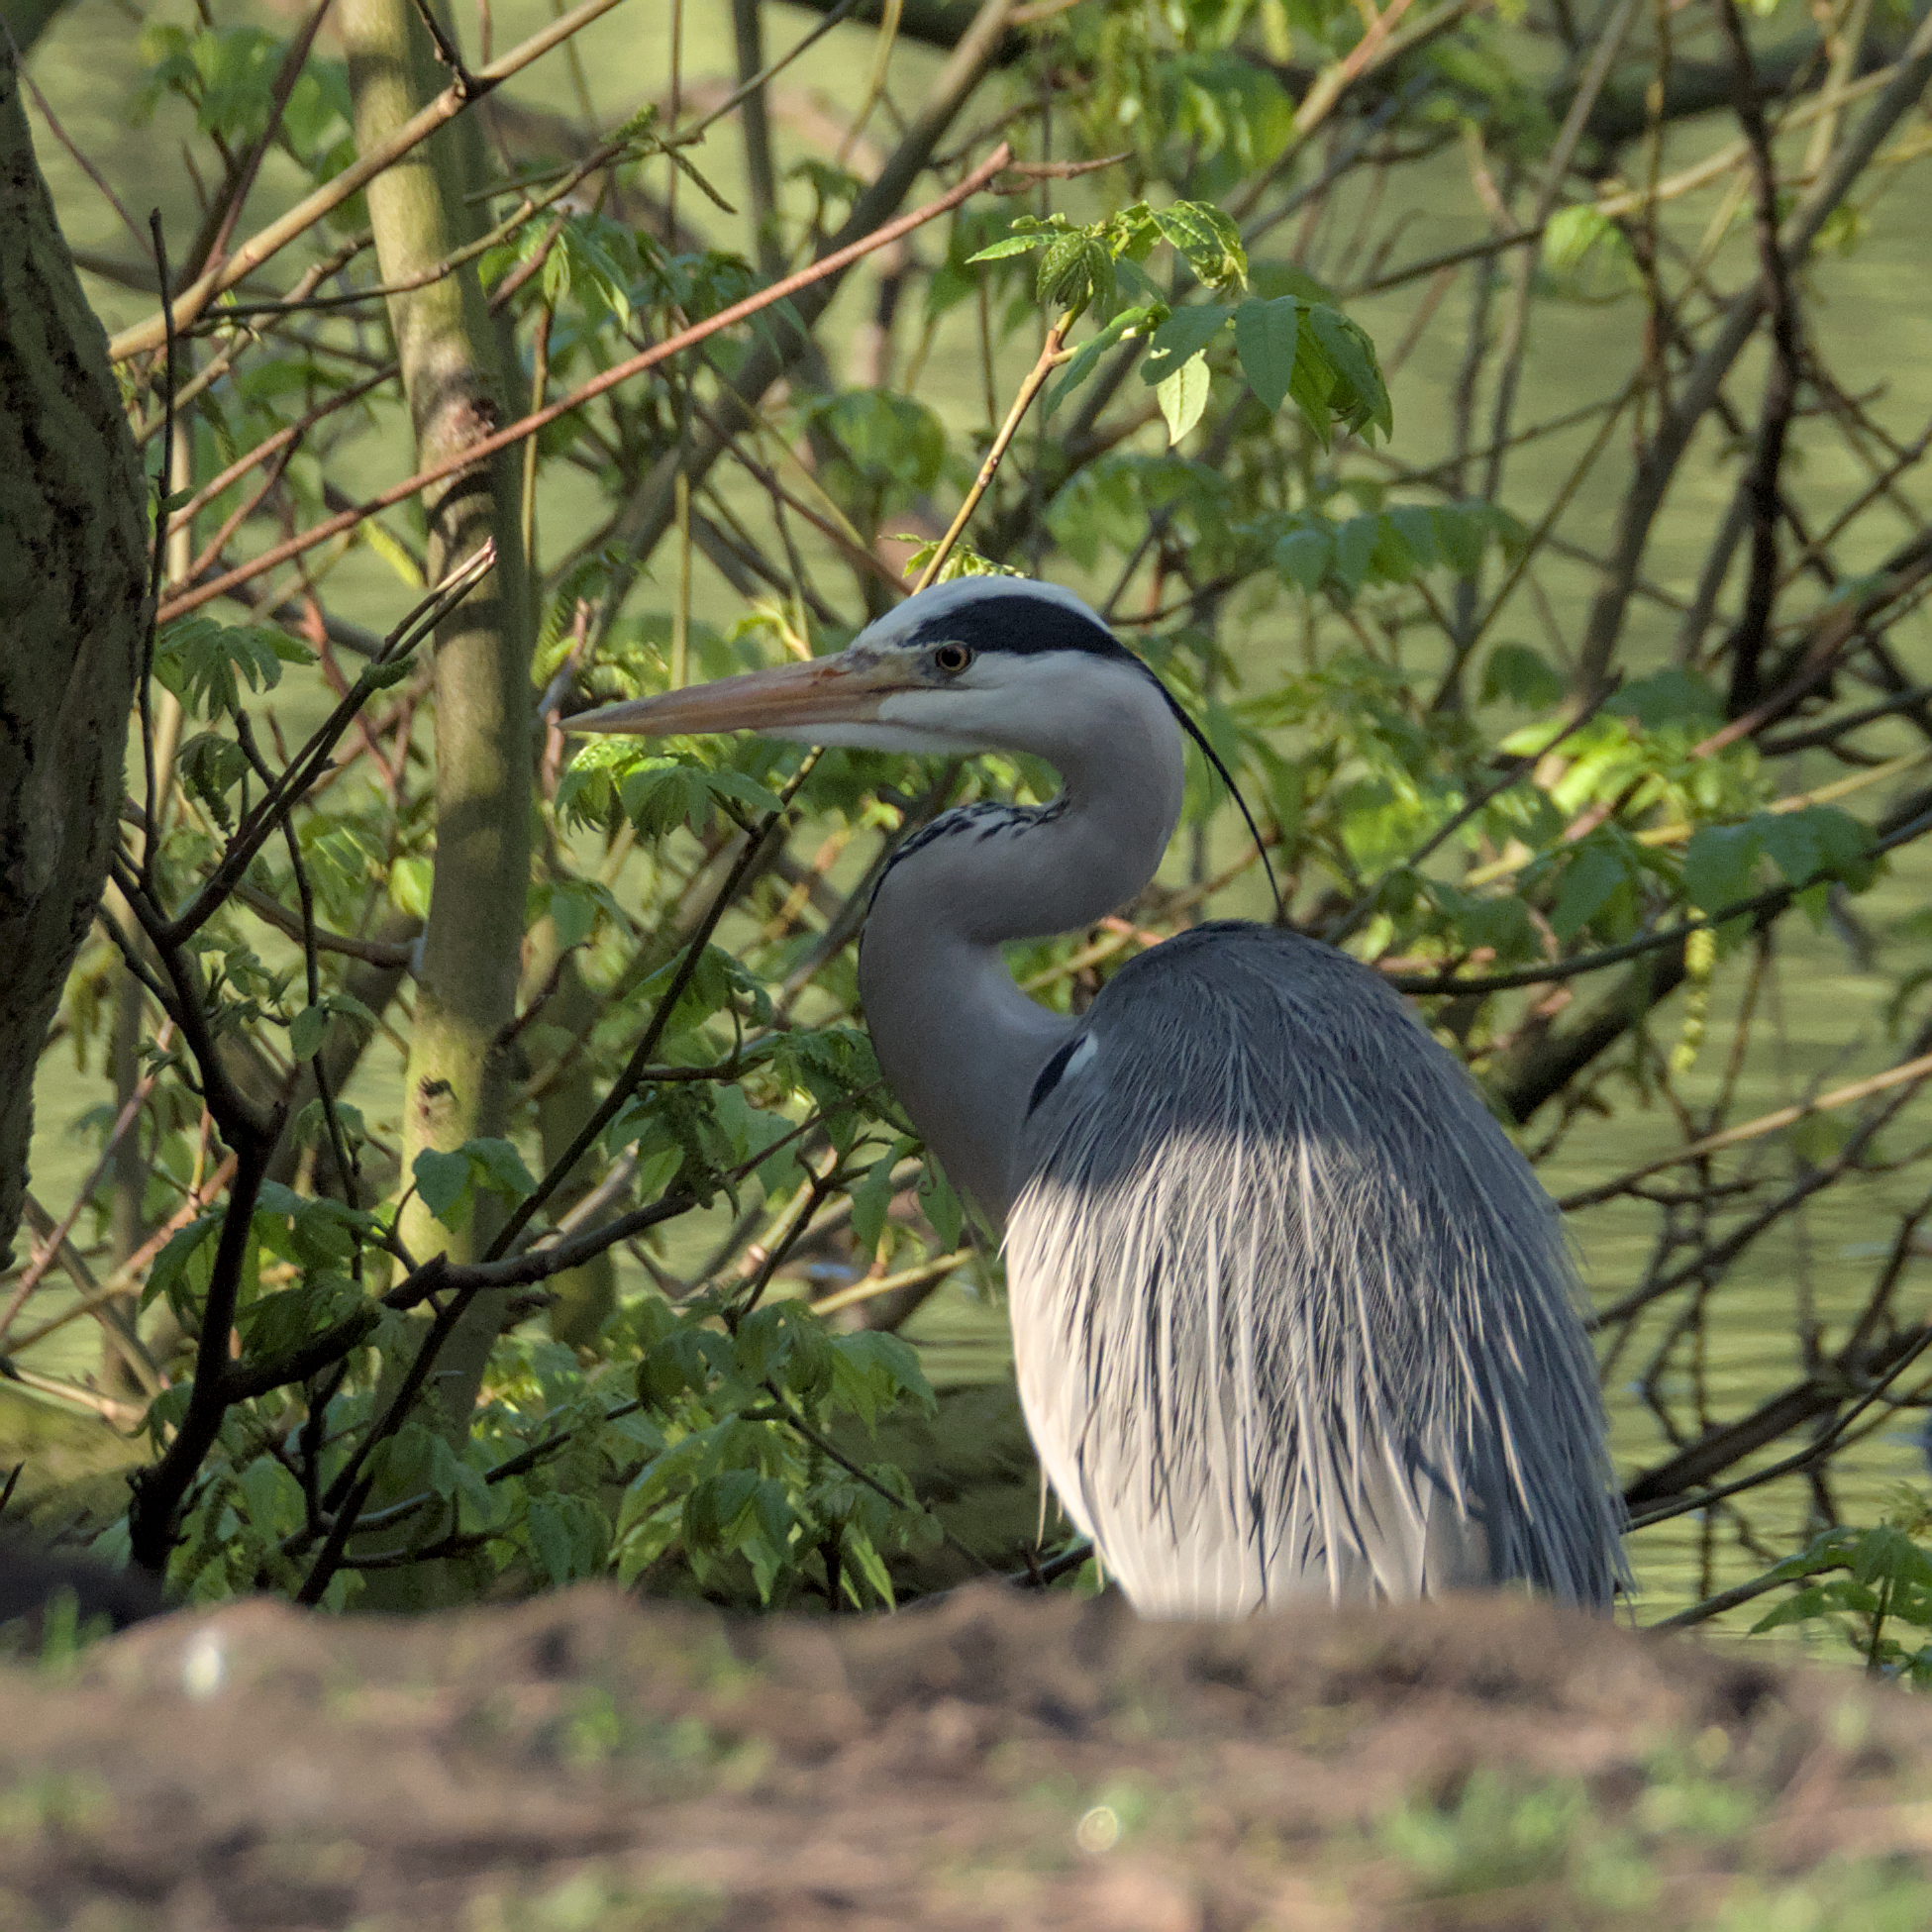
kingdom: Animalia
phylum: Chordata
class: Aves
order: Pelecaniformes
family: Ardeidae
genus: Ardea
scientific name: Ardea cinerea
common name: Grey heron
